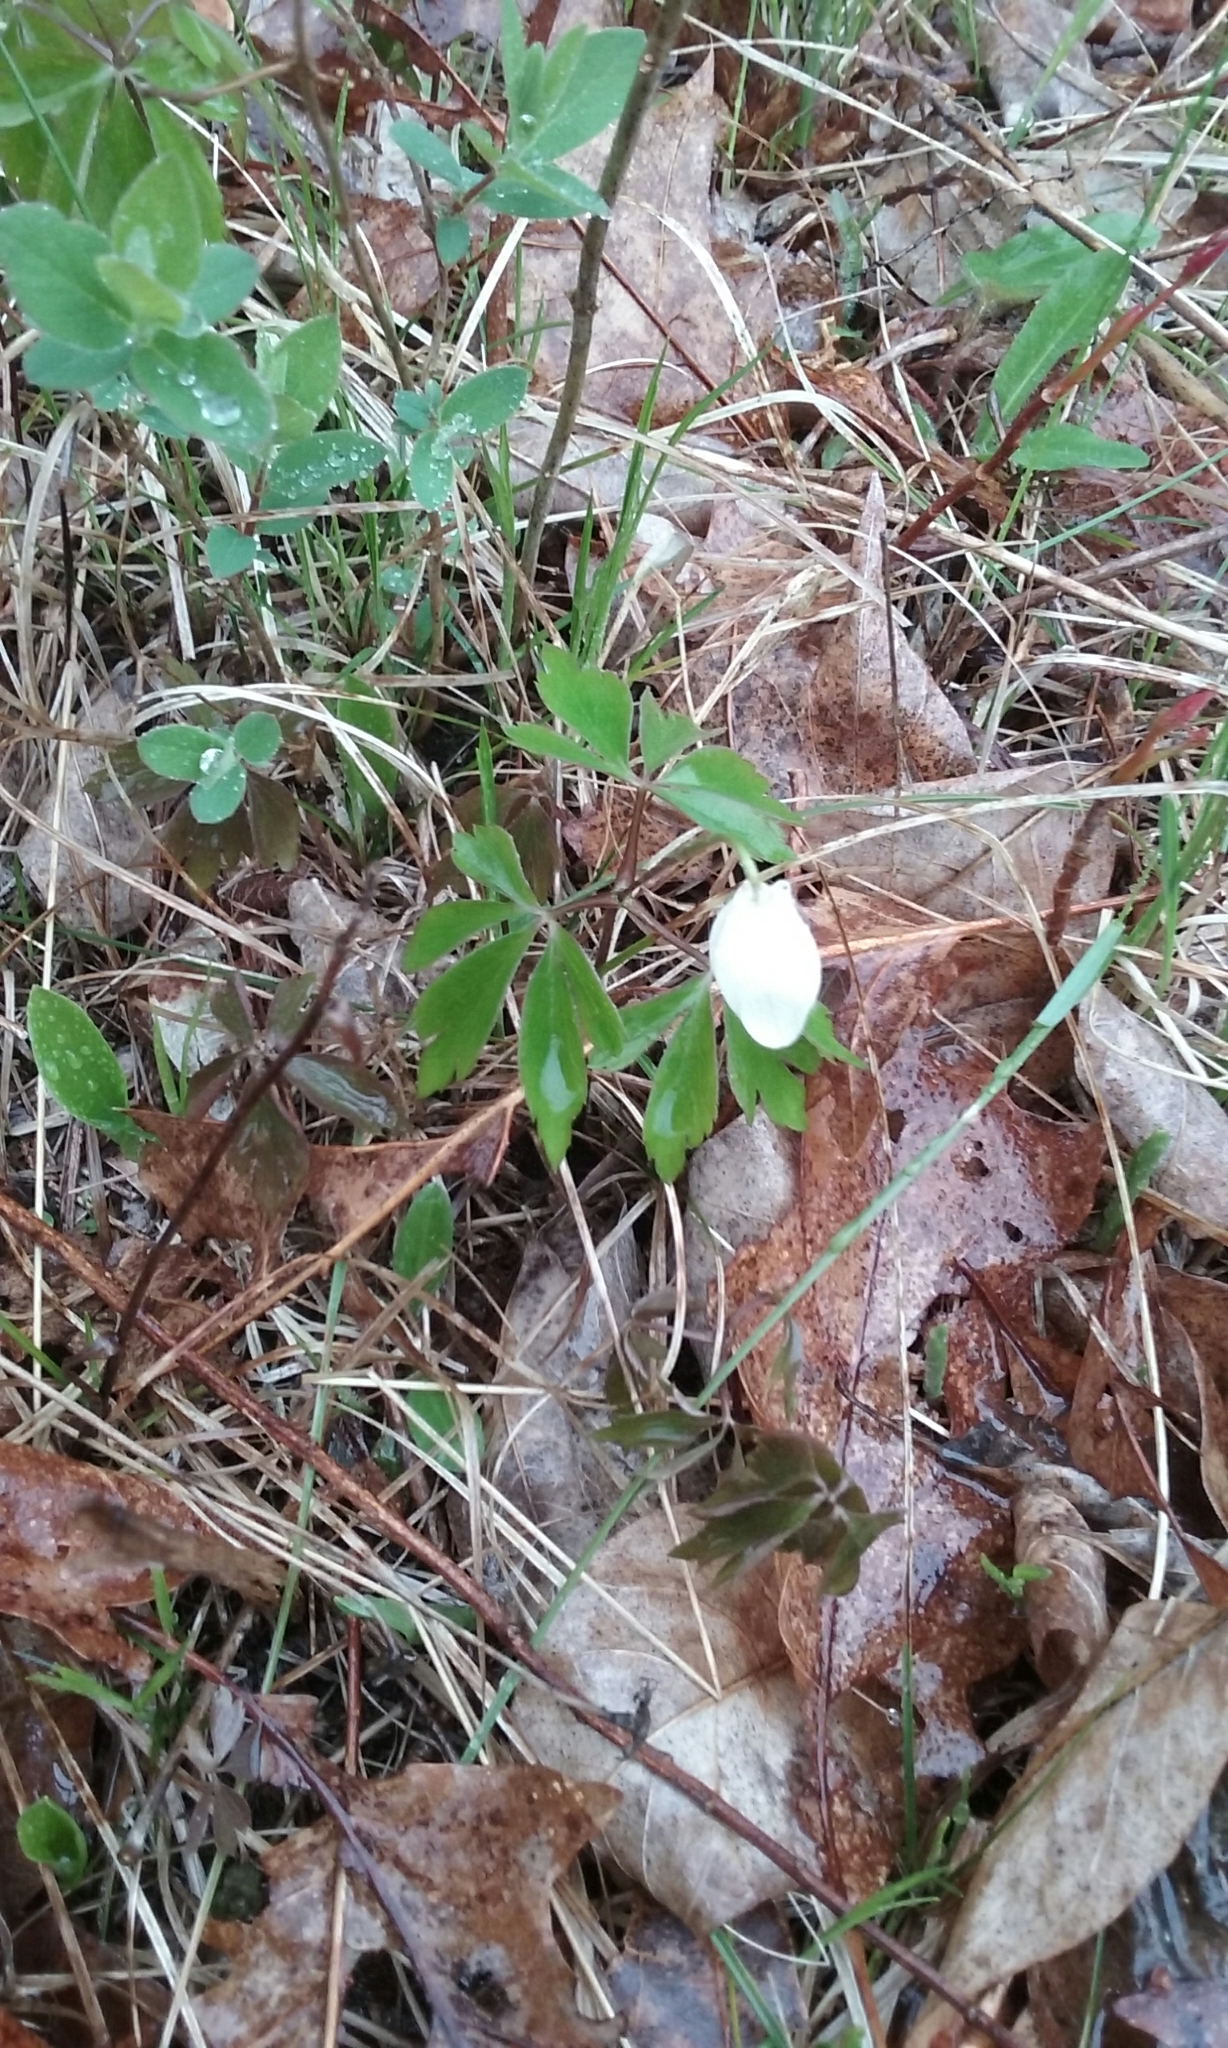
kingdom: Plantae
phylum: Tracheophyta
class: Magnoliopsida
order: Ranunculales
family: Ranunculaceae
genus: Anemone
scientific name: Anemone quinquefolia
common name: Wood anemone
